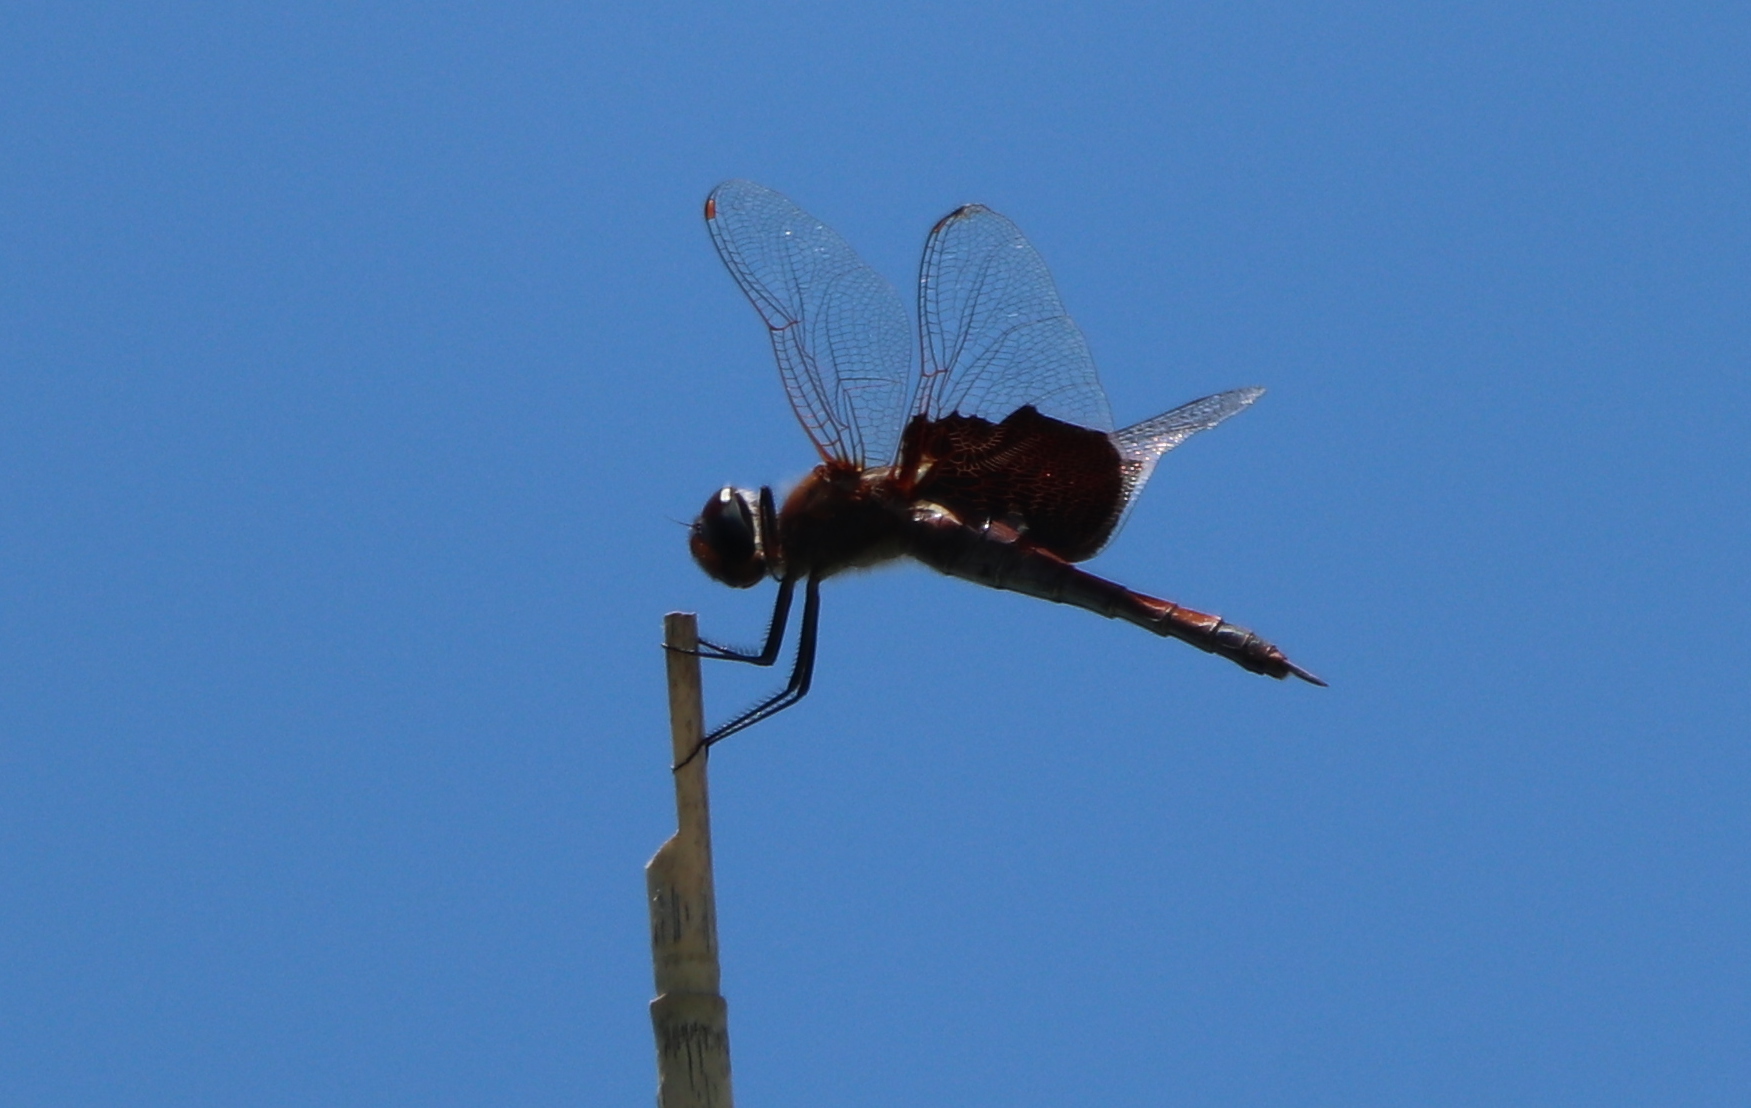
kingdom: Animalia
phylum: Arthropoda
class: Insecta
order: Odonata
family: Libellulidae
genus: Tramea
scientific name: Tramea carolina
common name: Carolina saddlebags
